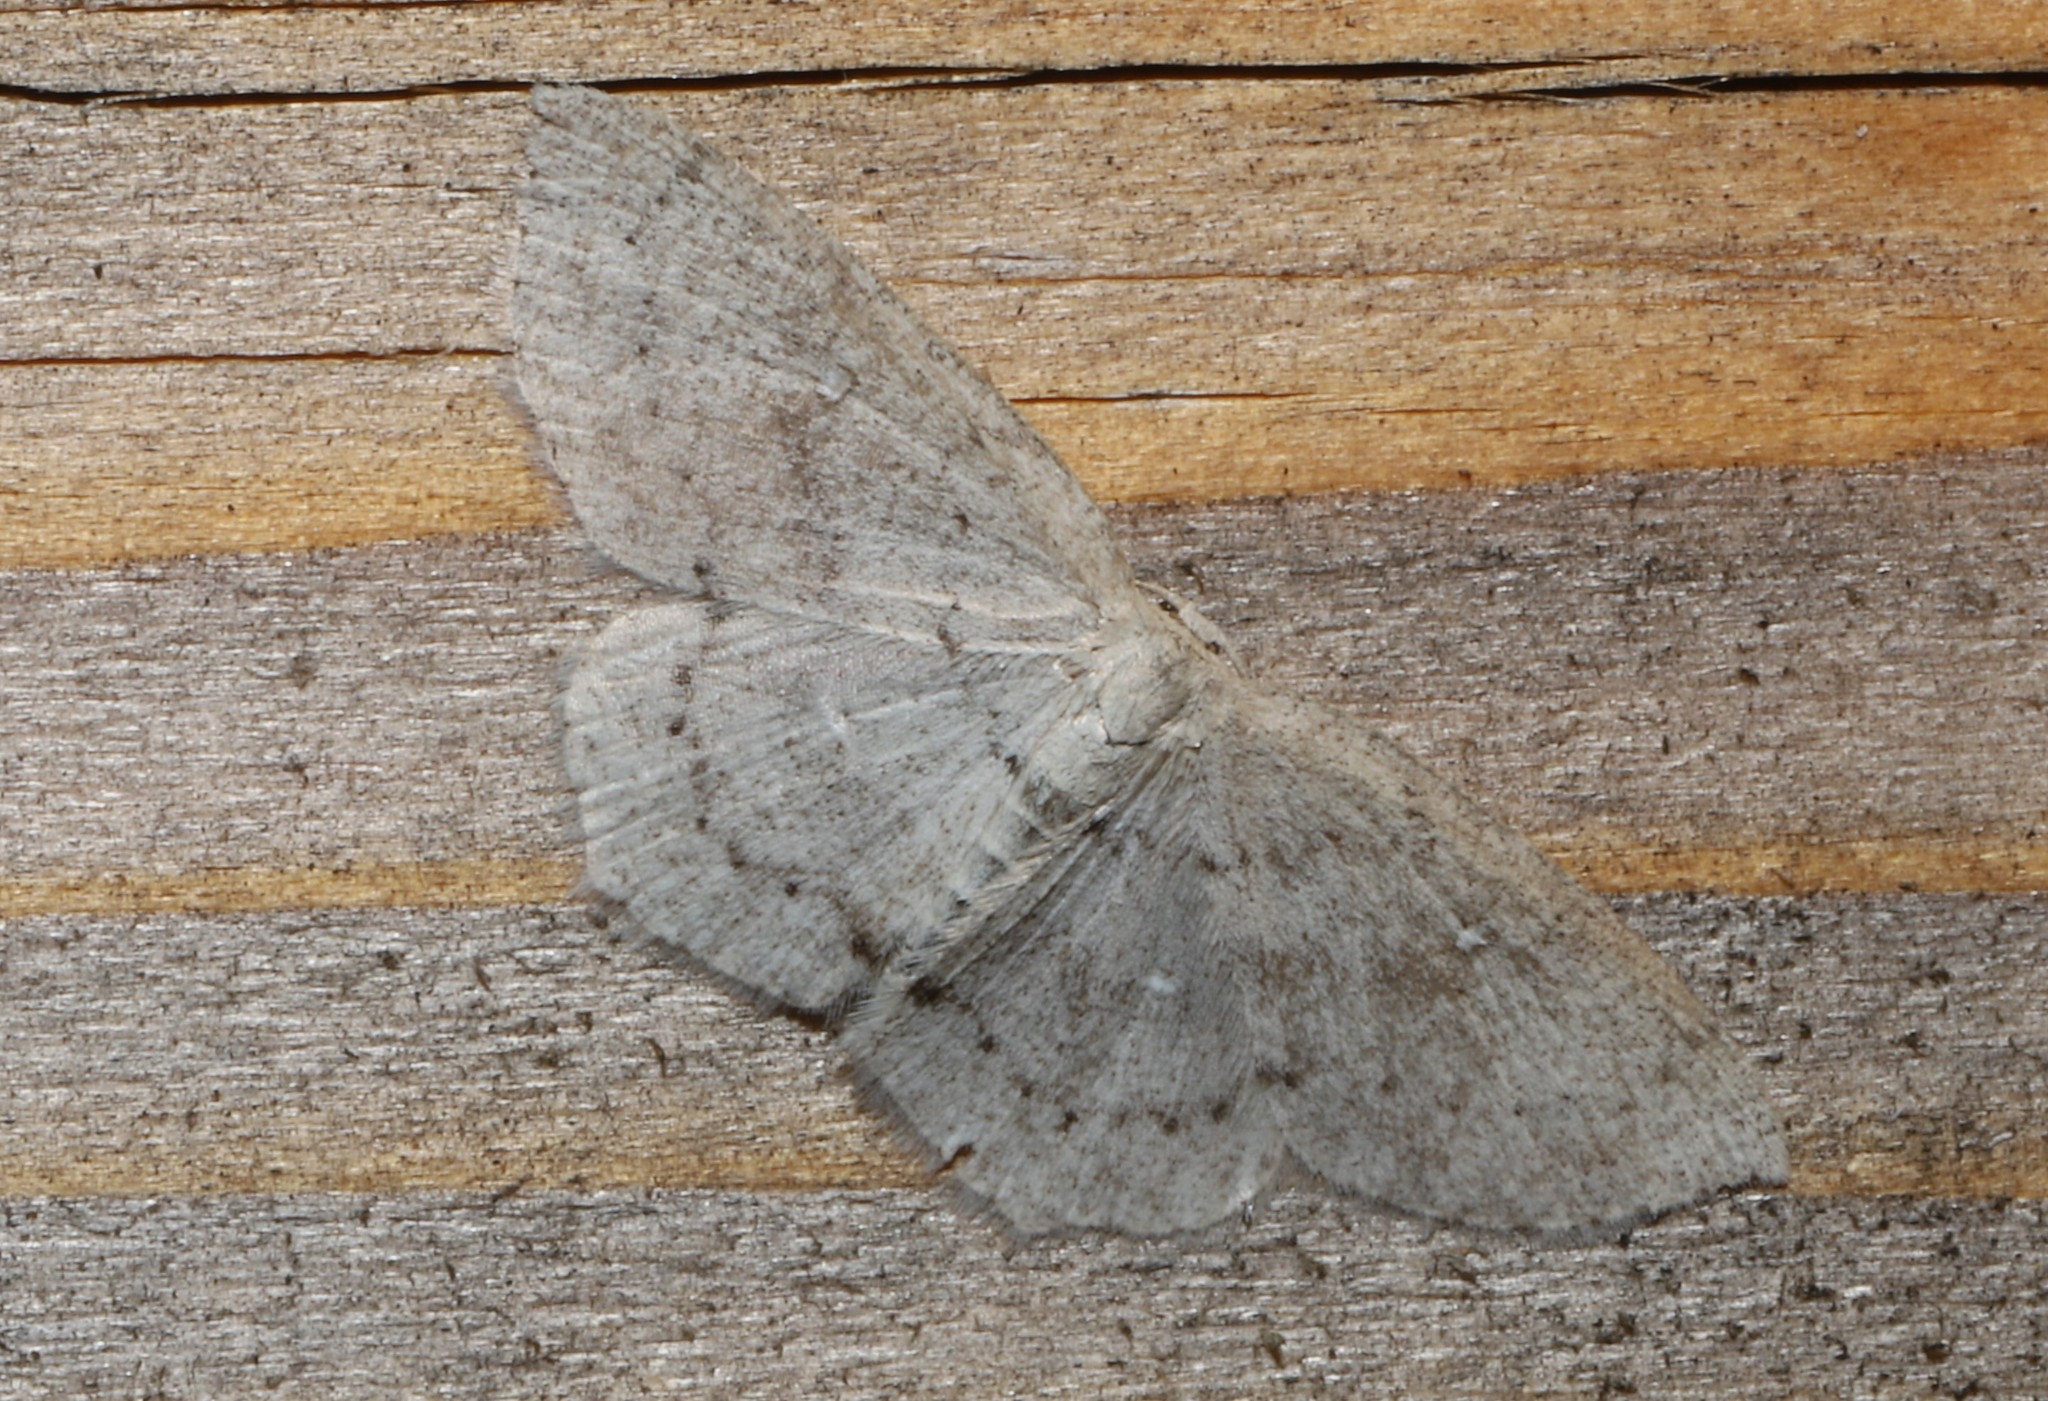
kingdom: Animalia
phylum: Arthropoda
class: Insecta
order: Lepidoptera
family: Geometridae
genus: Cyclophora
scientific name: Cyclophora pendulinaria
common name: Sweet fern geometer
